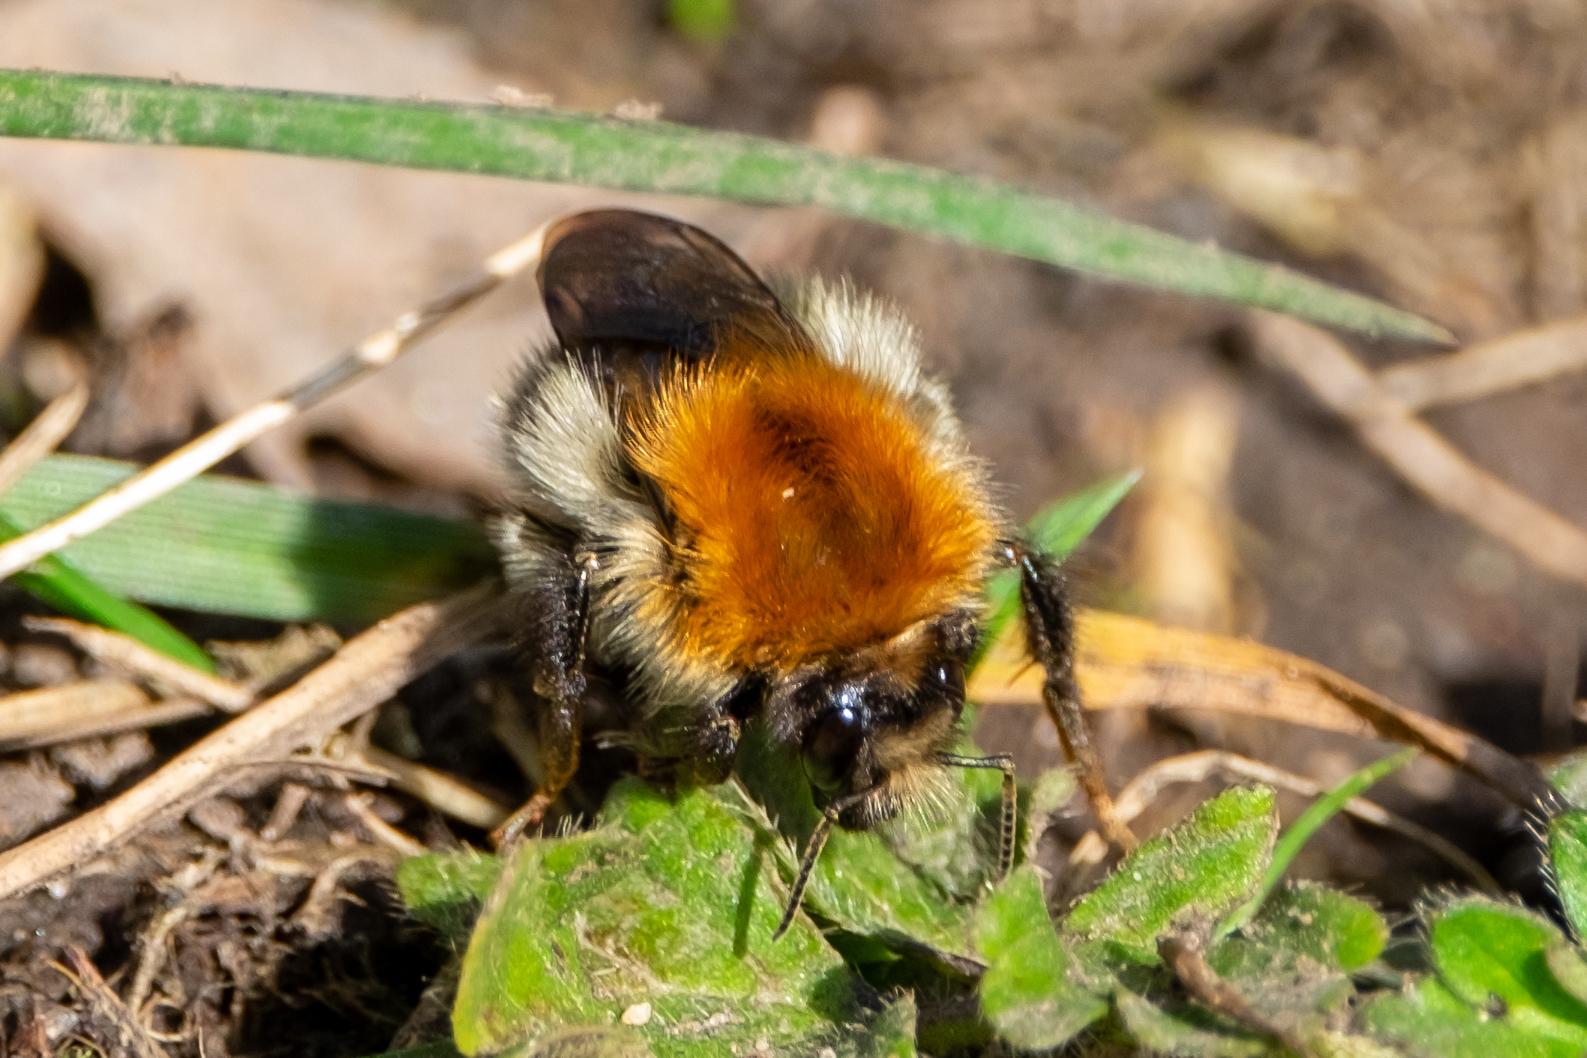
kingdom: Animalia
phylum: Arthropoda
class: Insecta
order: Hymenoptera
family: Apidae
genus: Bombus
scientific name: Bombus pascuorum
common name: Common carder bee
